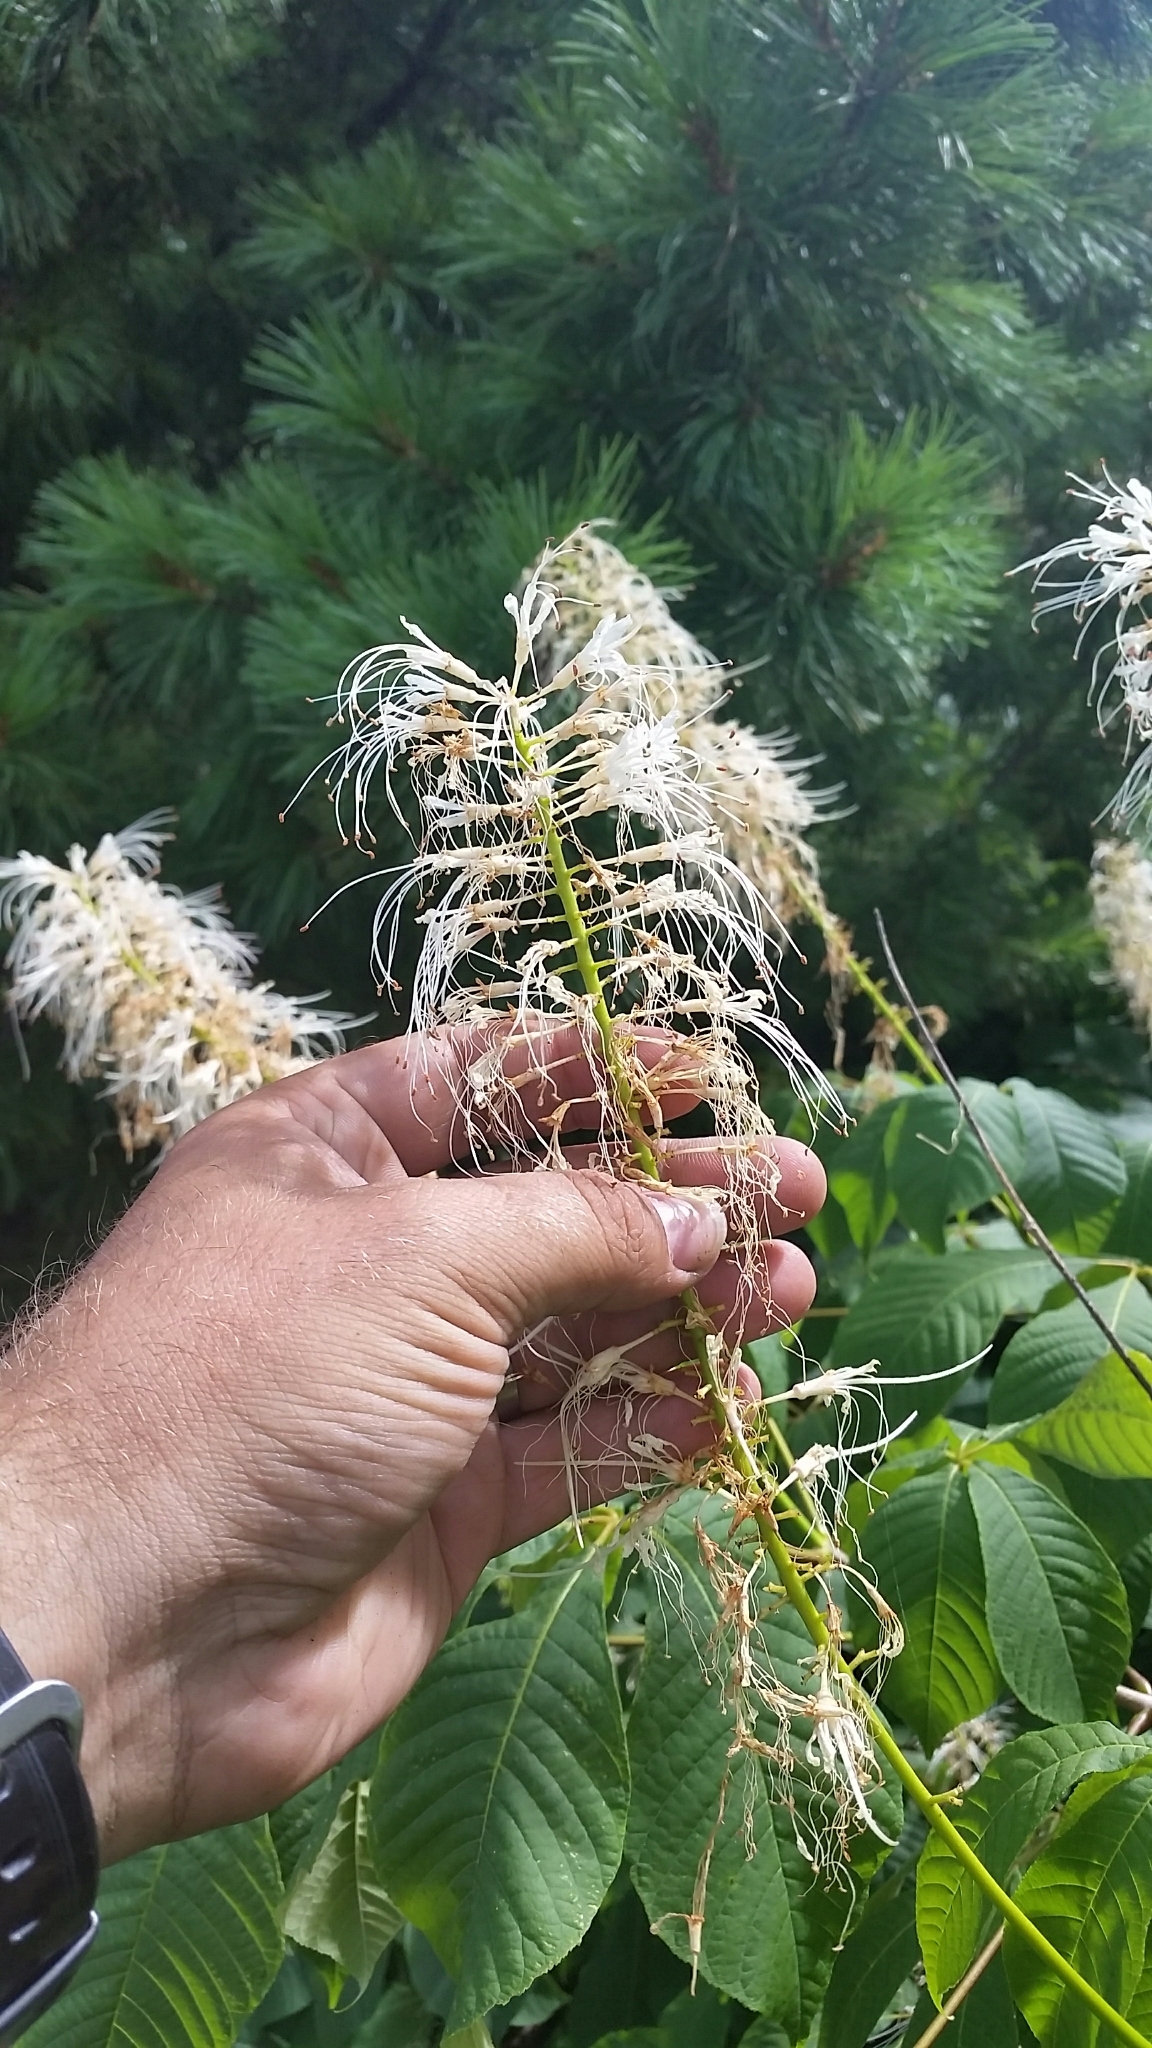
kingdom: Plantae
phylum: Tracheophyta
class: Magnoliopsida
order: Sapindales
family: Sapindaceae
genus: Aesculus
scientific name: Aesculus parviflora
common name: Bottlebrush buckeye
